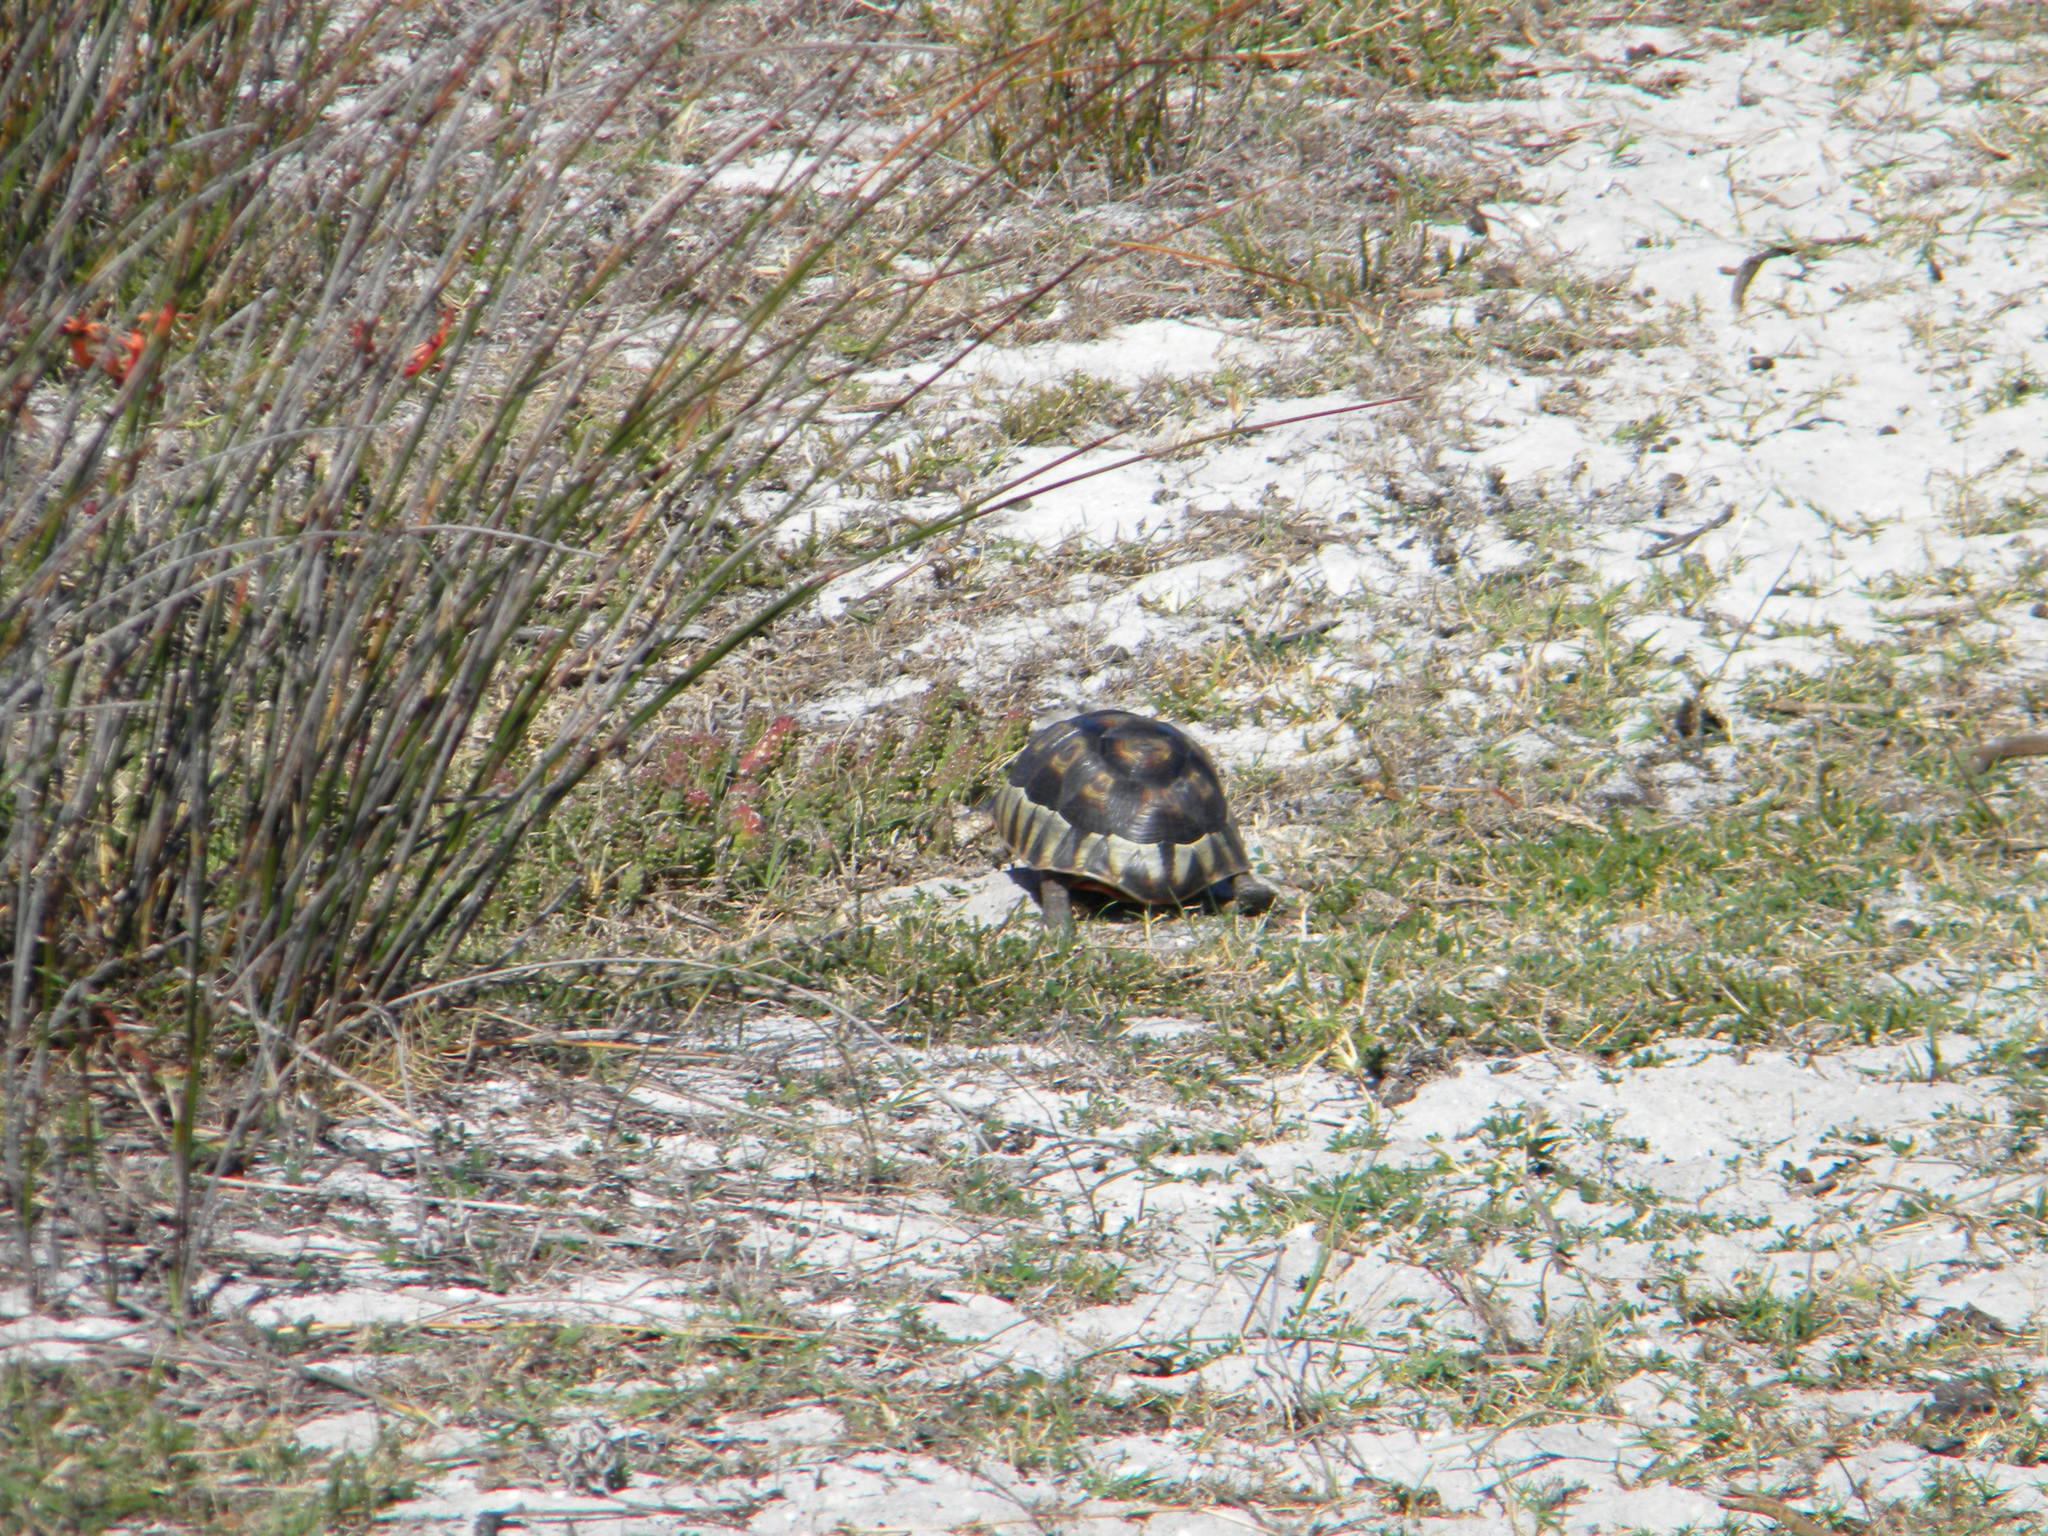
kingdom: Animalia
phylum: Chordata
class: Testudines
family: Testudinidae
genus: Chersina
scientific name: Chersina angulata
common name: South african bowsprit tortoise
